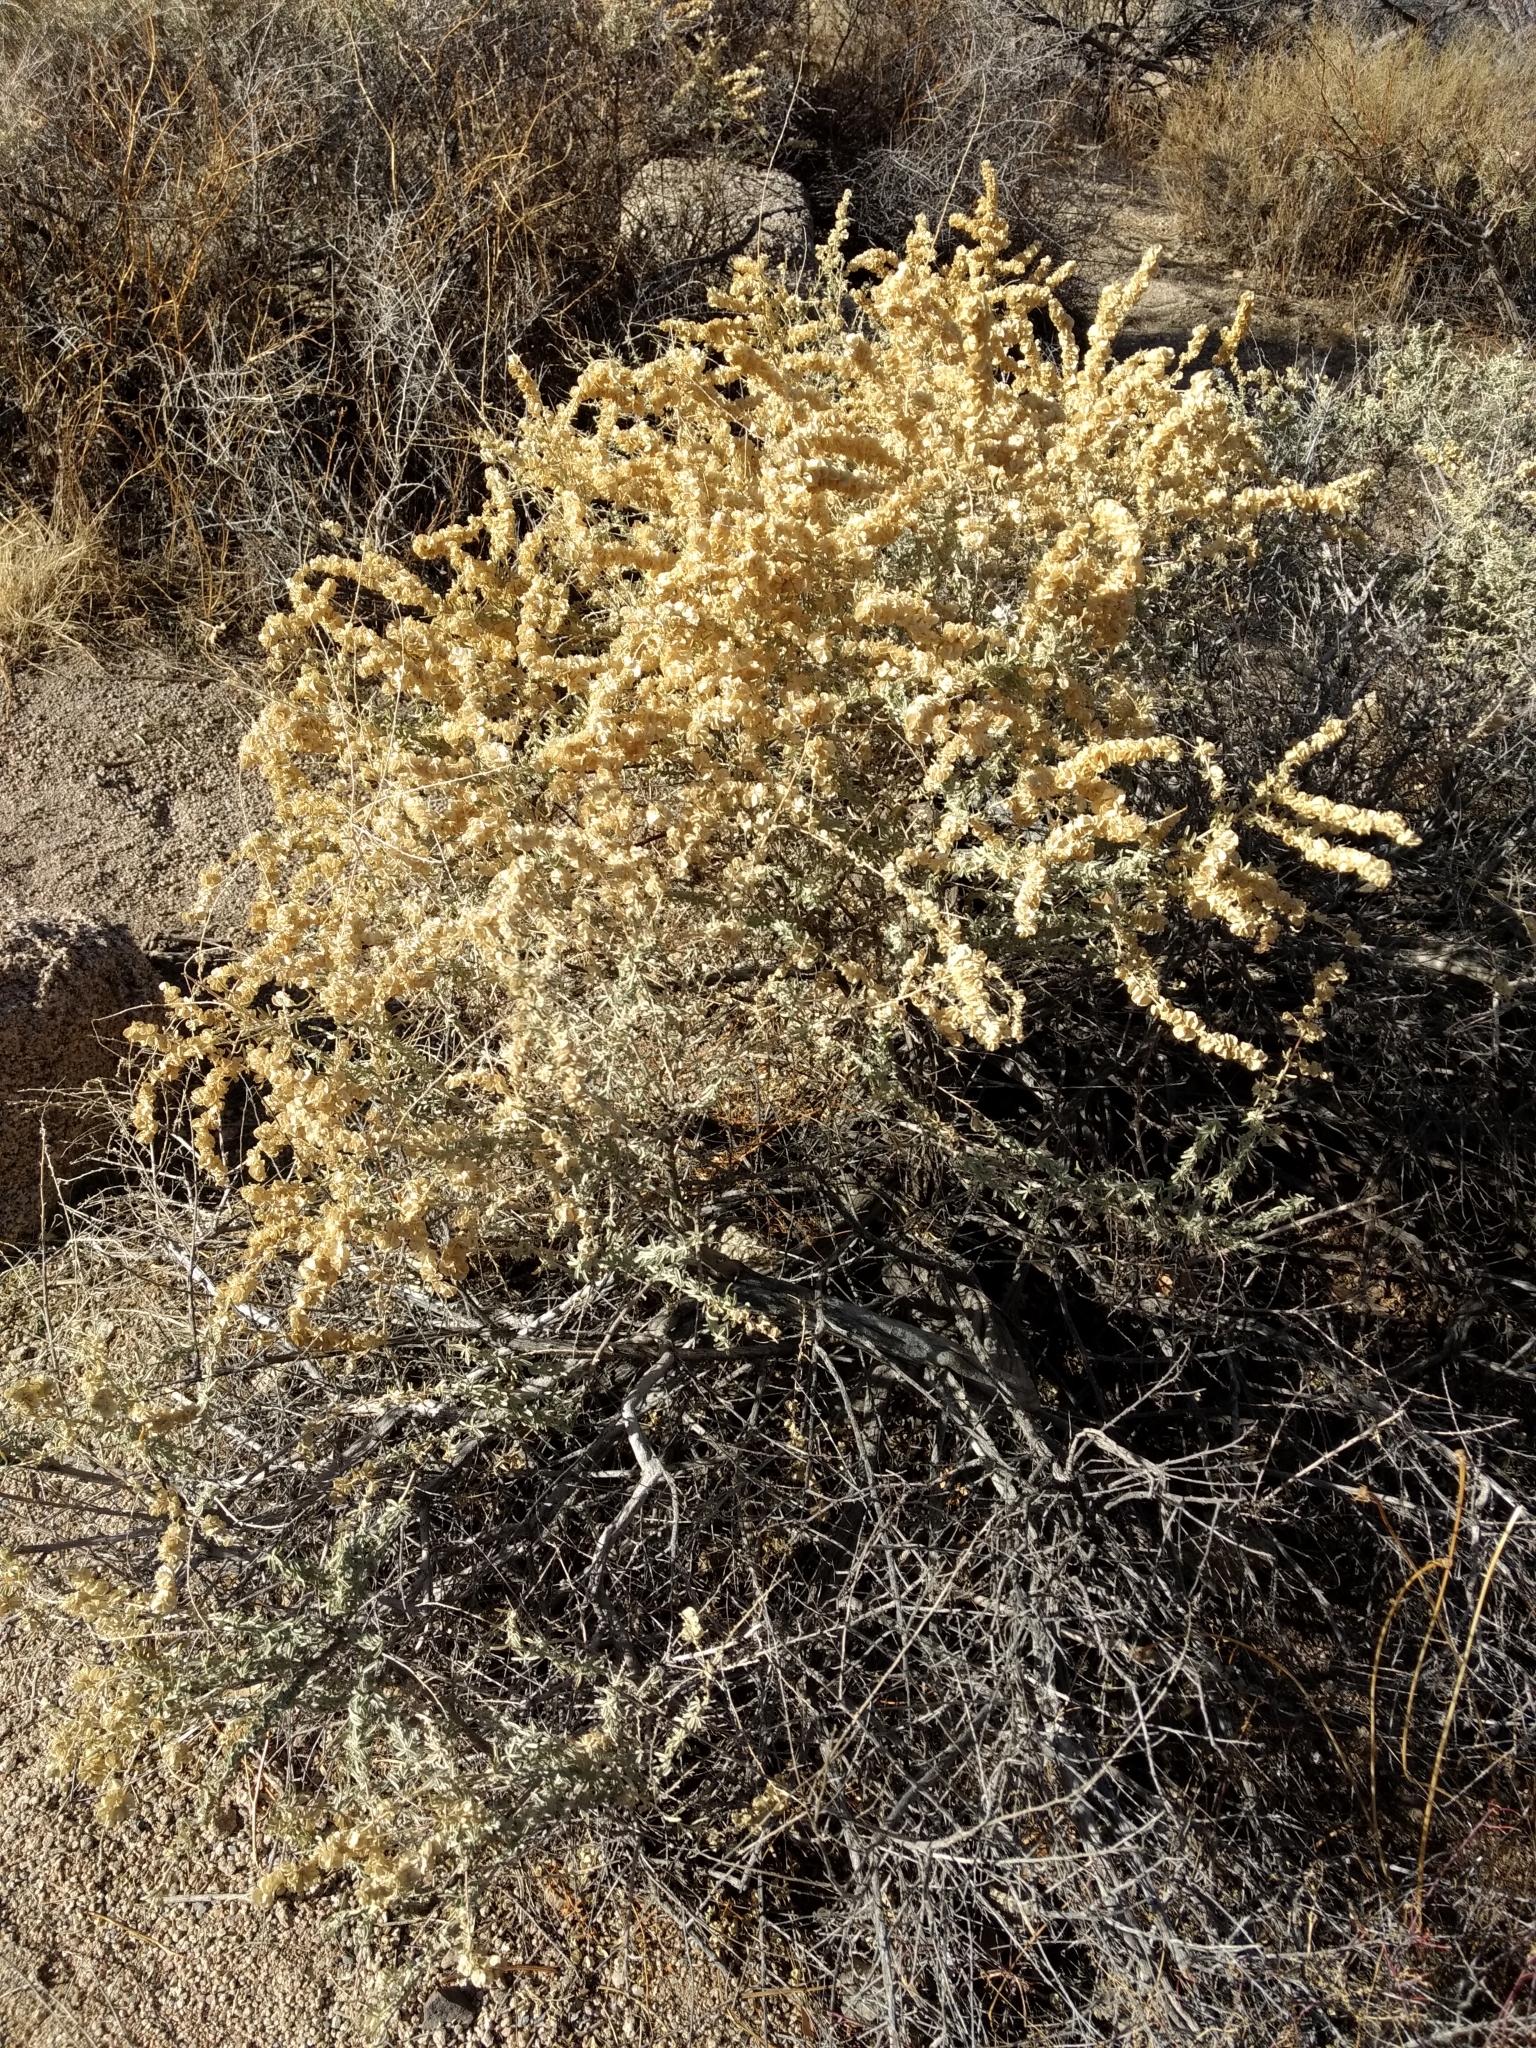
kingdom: Plantae
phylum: Tracheophyta
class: Magnoliopsida
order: Caryophyllales
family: Amaranthaceae
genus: Atriplex
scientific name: Atriplex canescens
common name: Four-wing saltbush
